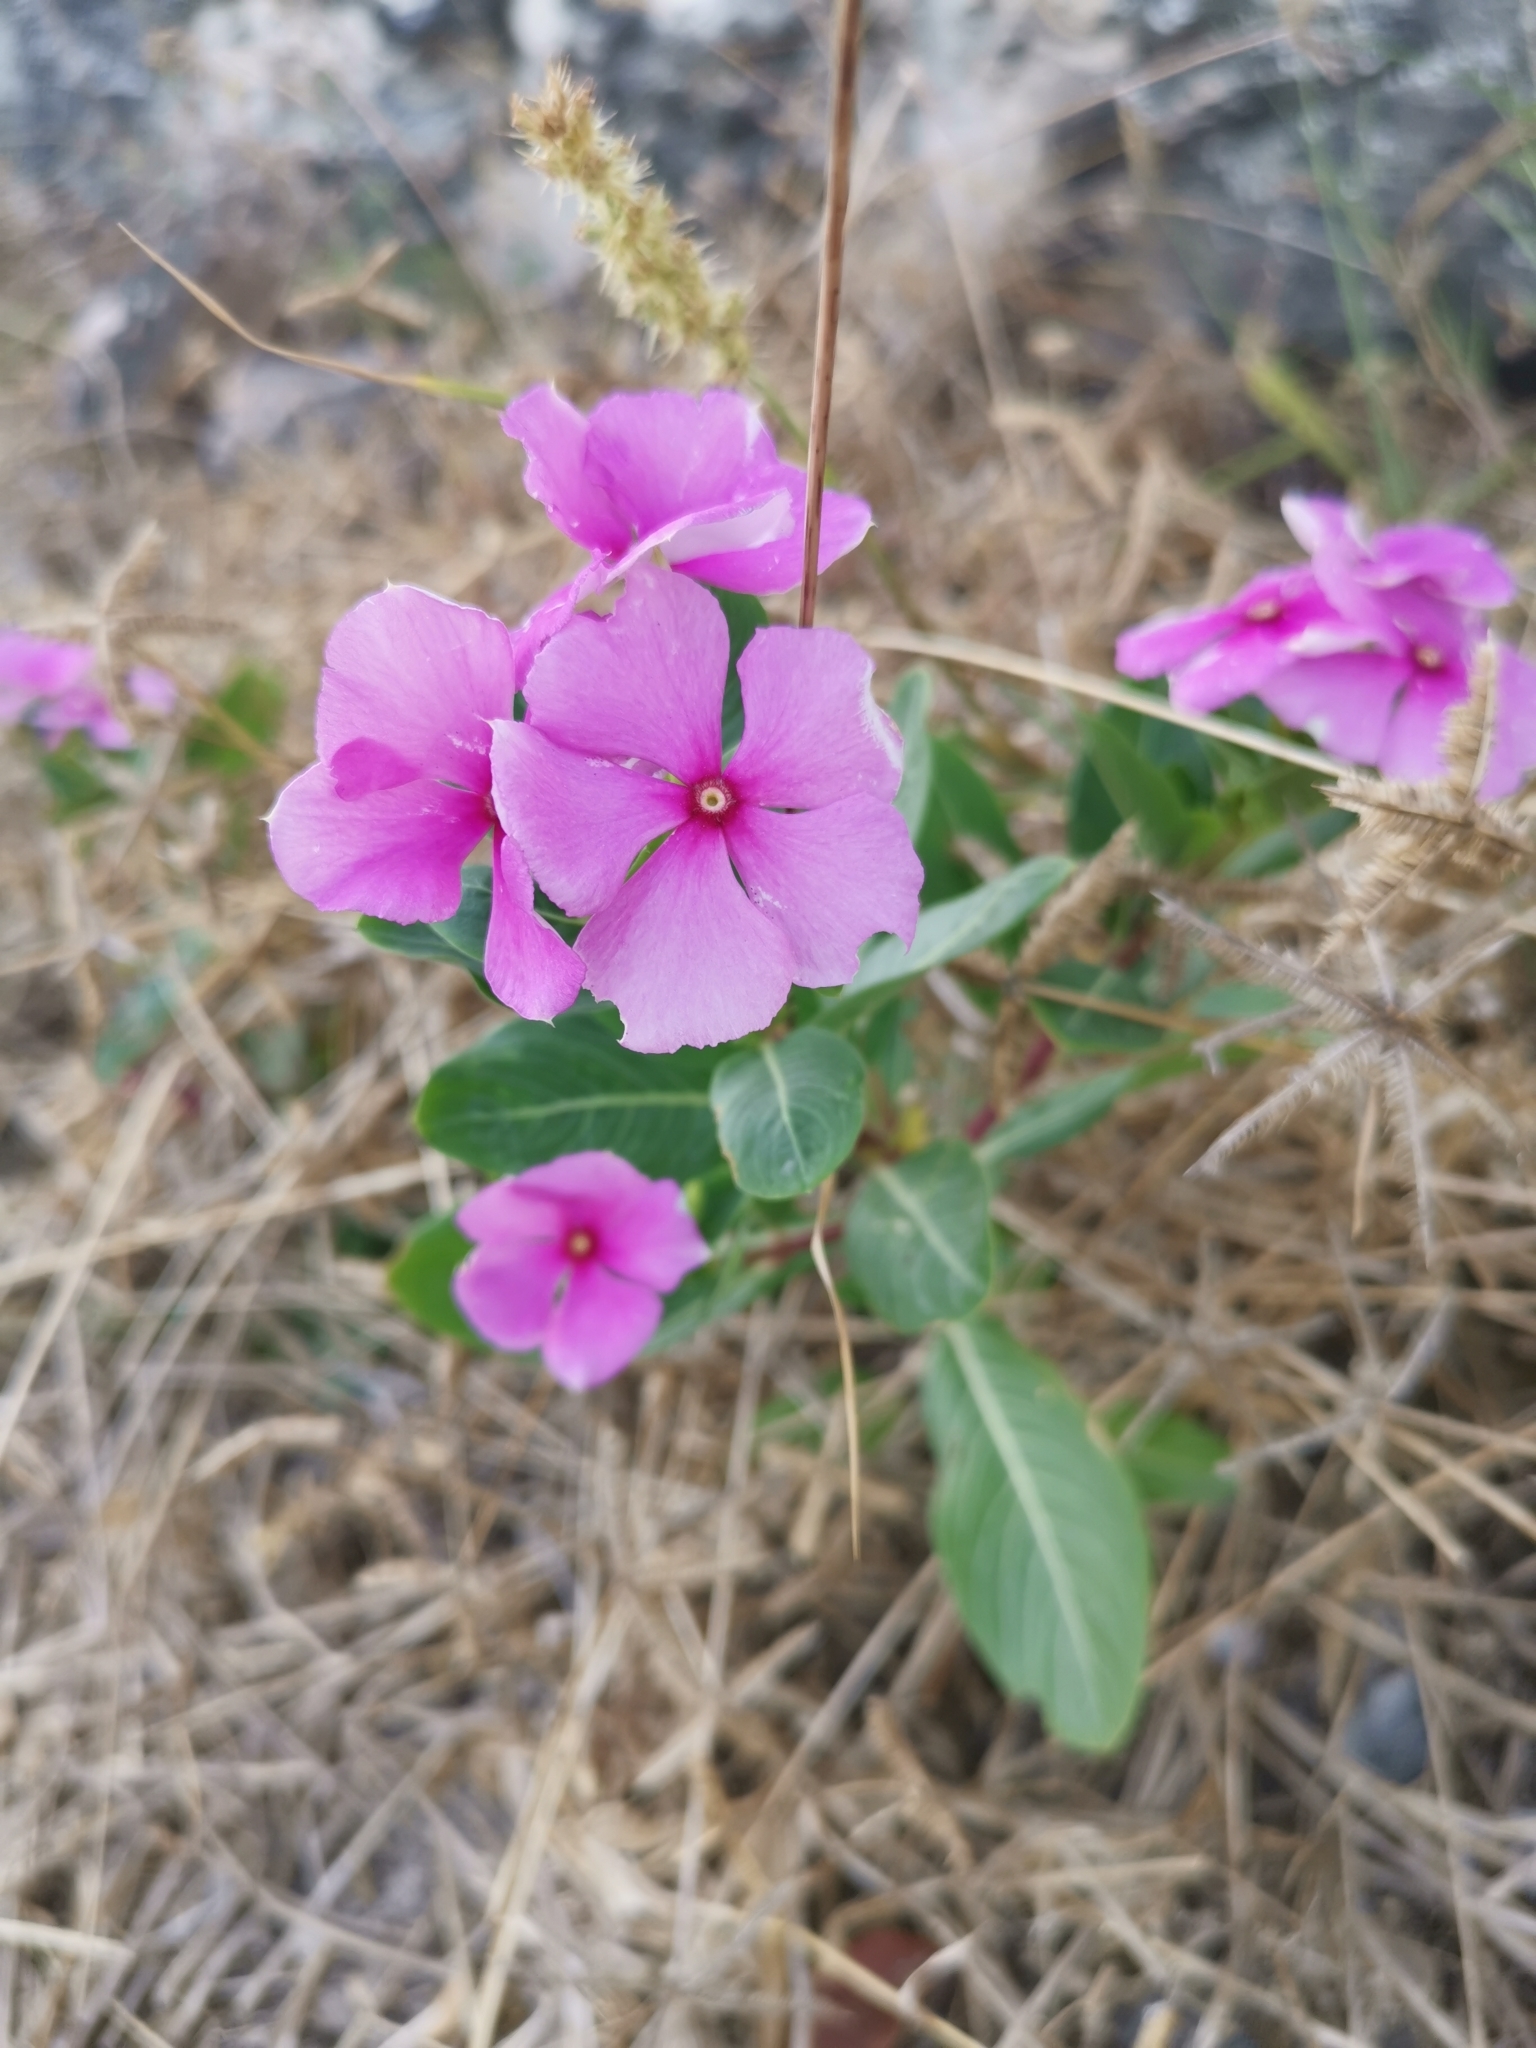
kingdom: Plantae
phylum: Tracheophyta
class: Magnoliopsida
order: Gentianales
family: Apocynaceae
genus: Catharanthus
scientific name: Catharanthus roseus
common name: Madagascar periwinkle
